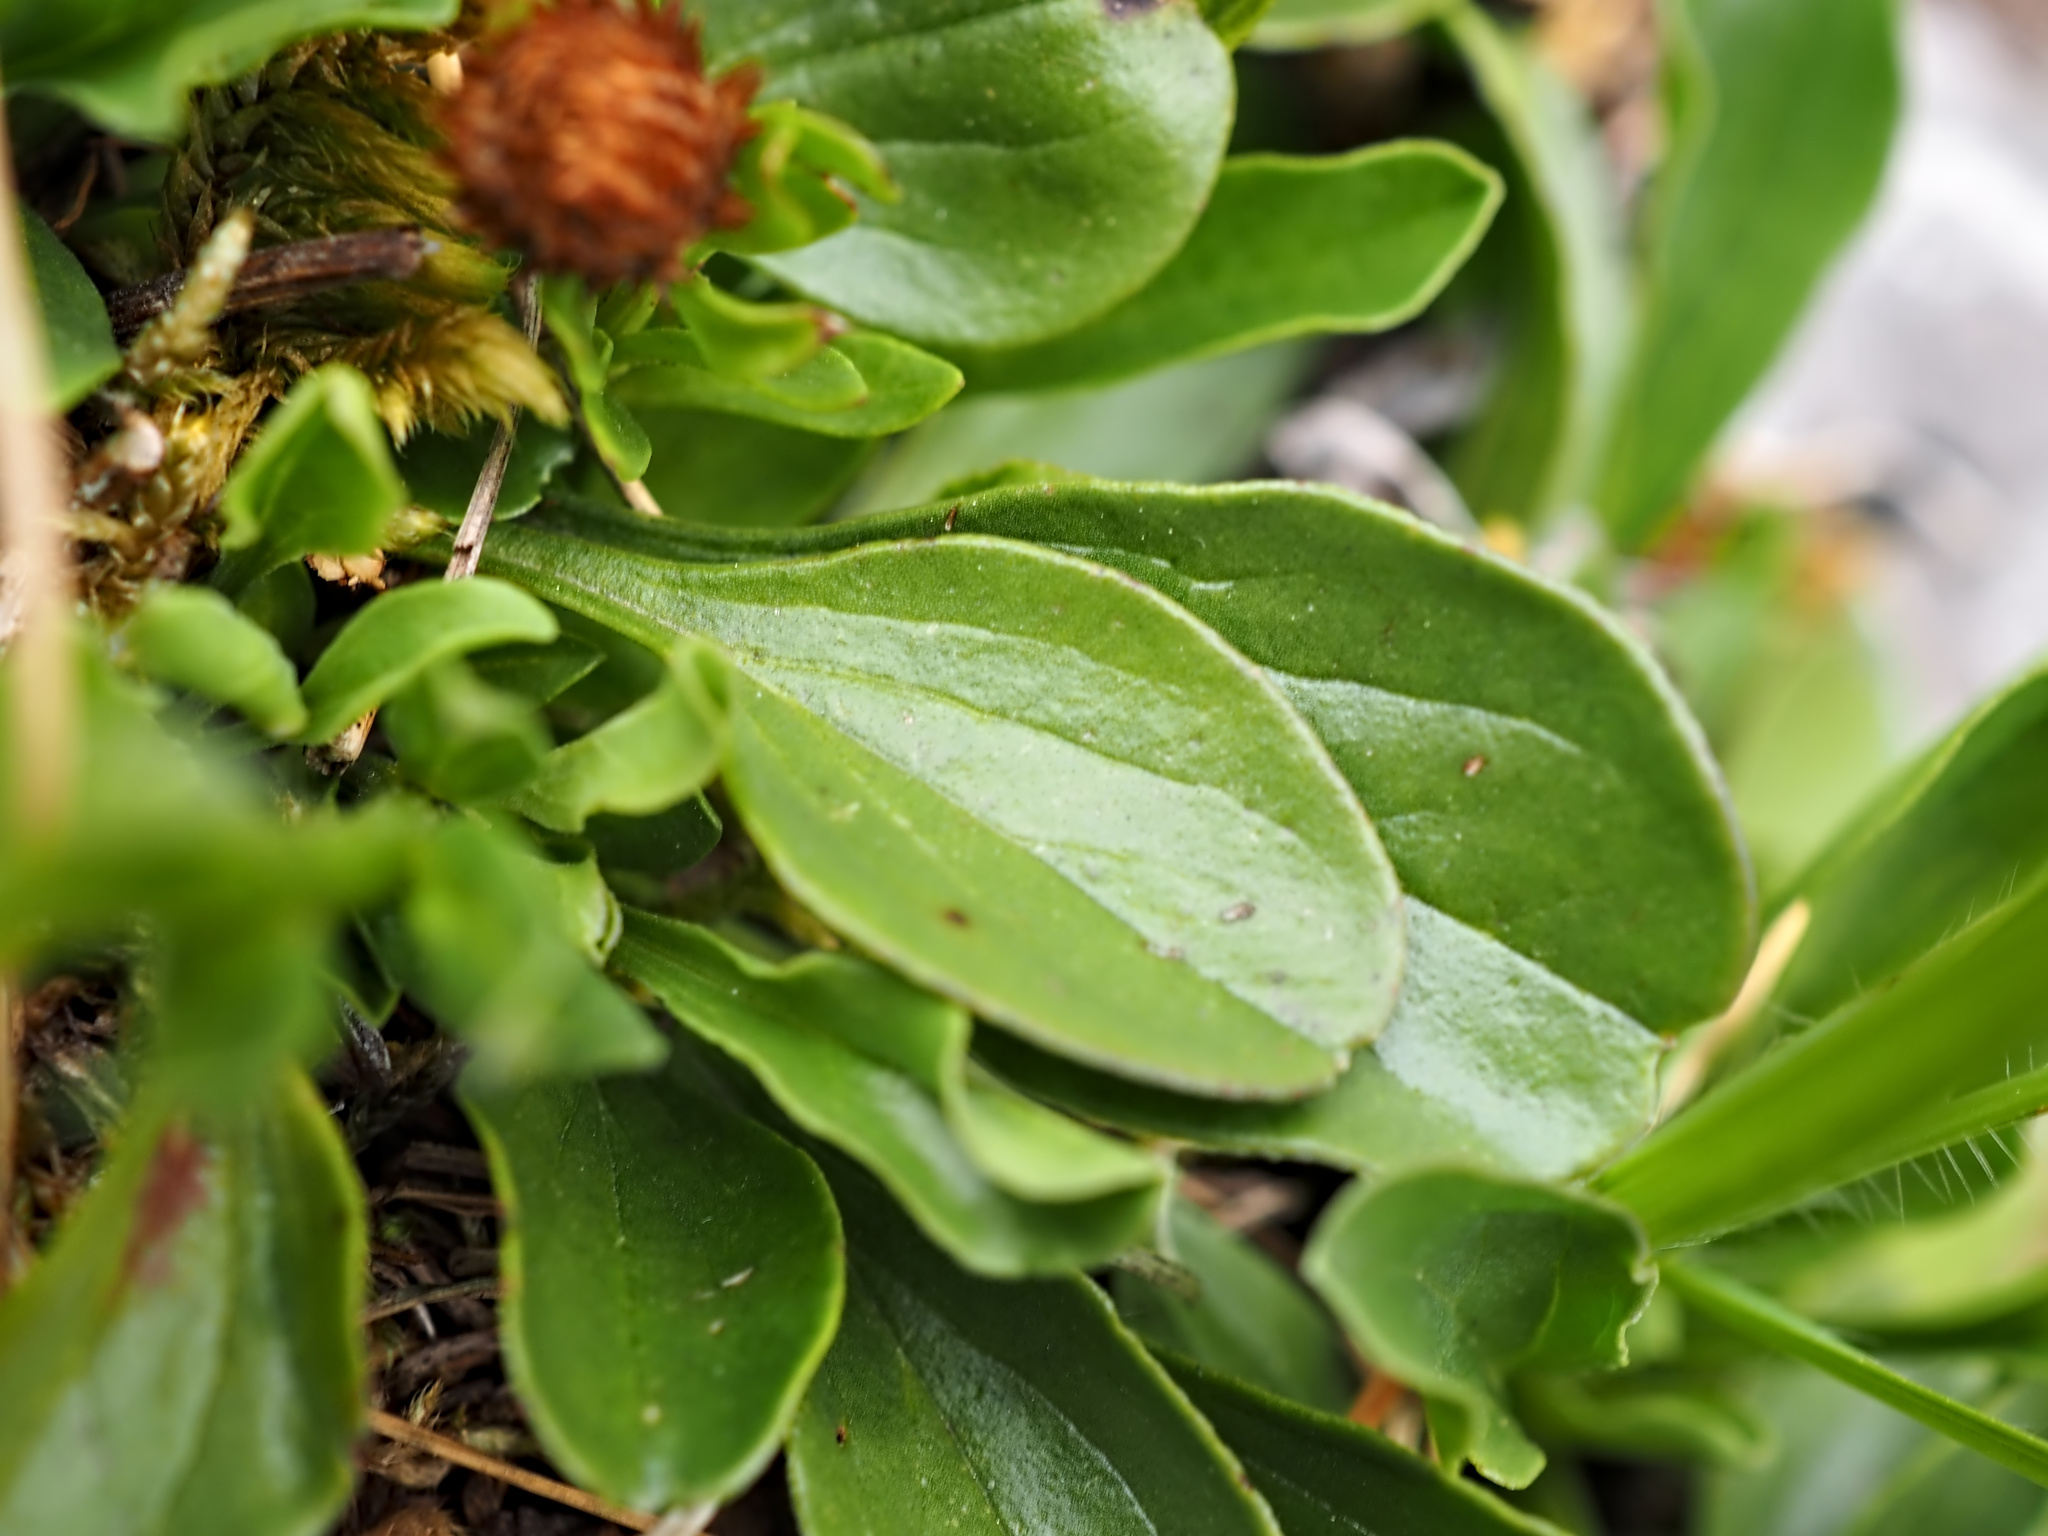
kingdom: Plantae
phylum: Tracheophyta
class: Magnoliopsida
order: Lamiales
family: Plantaginaceae
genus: Globularia
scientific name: Globularia bisnagarica
